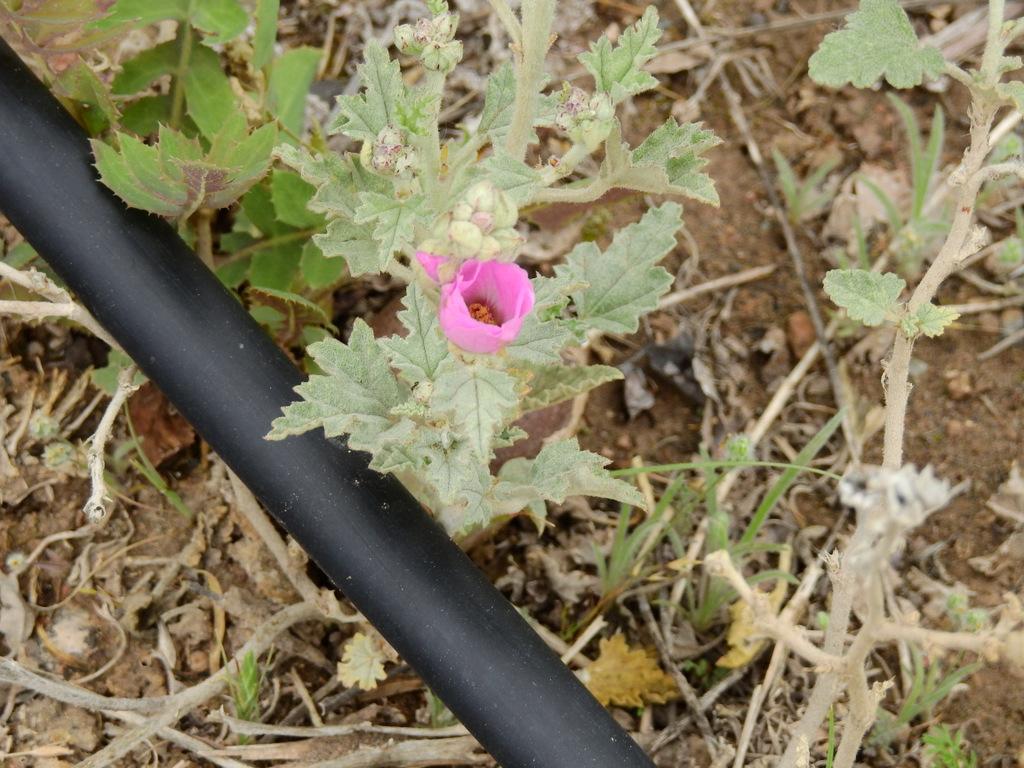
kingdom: Plantae
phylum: Tracheophyta
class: Magnoliopsida
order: Malvales
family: Malvaceae
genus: Sphaeralcea
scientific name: Sphaeralcea mendocina
